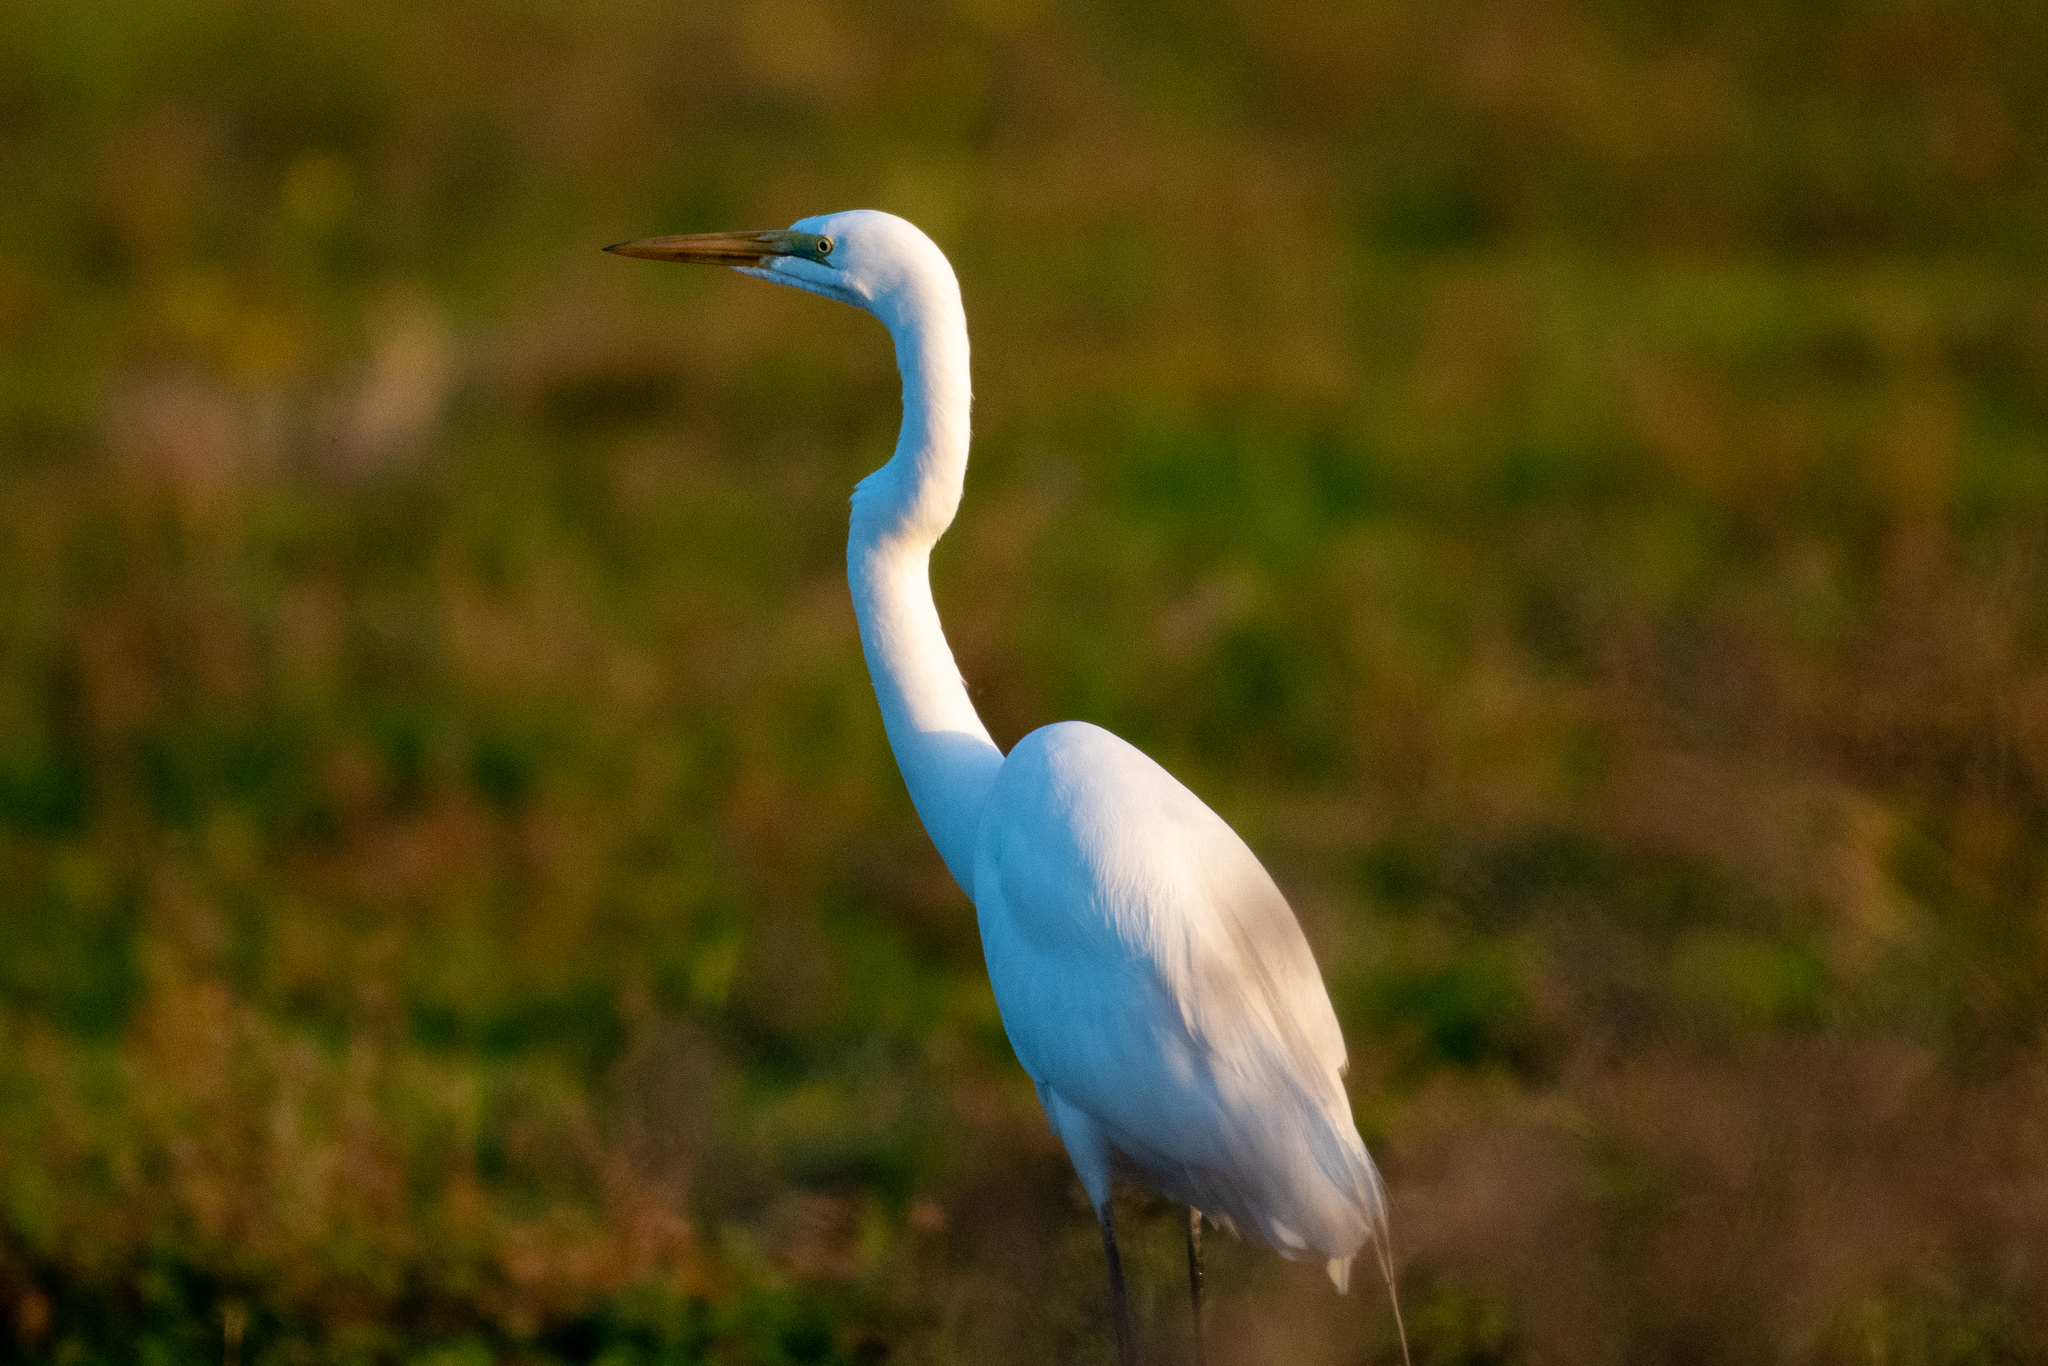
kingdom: Animalia
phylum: Chordata
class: Aves
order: Pelecaniformes
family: Ardeidae
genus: Ardea
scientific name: Ardea alba
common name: Great egret
